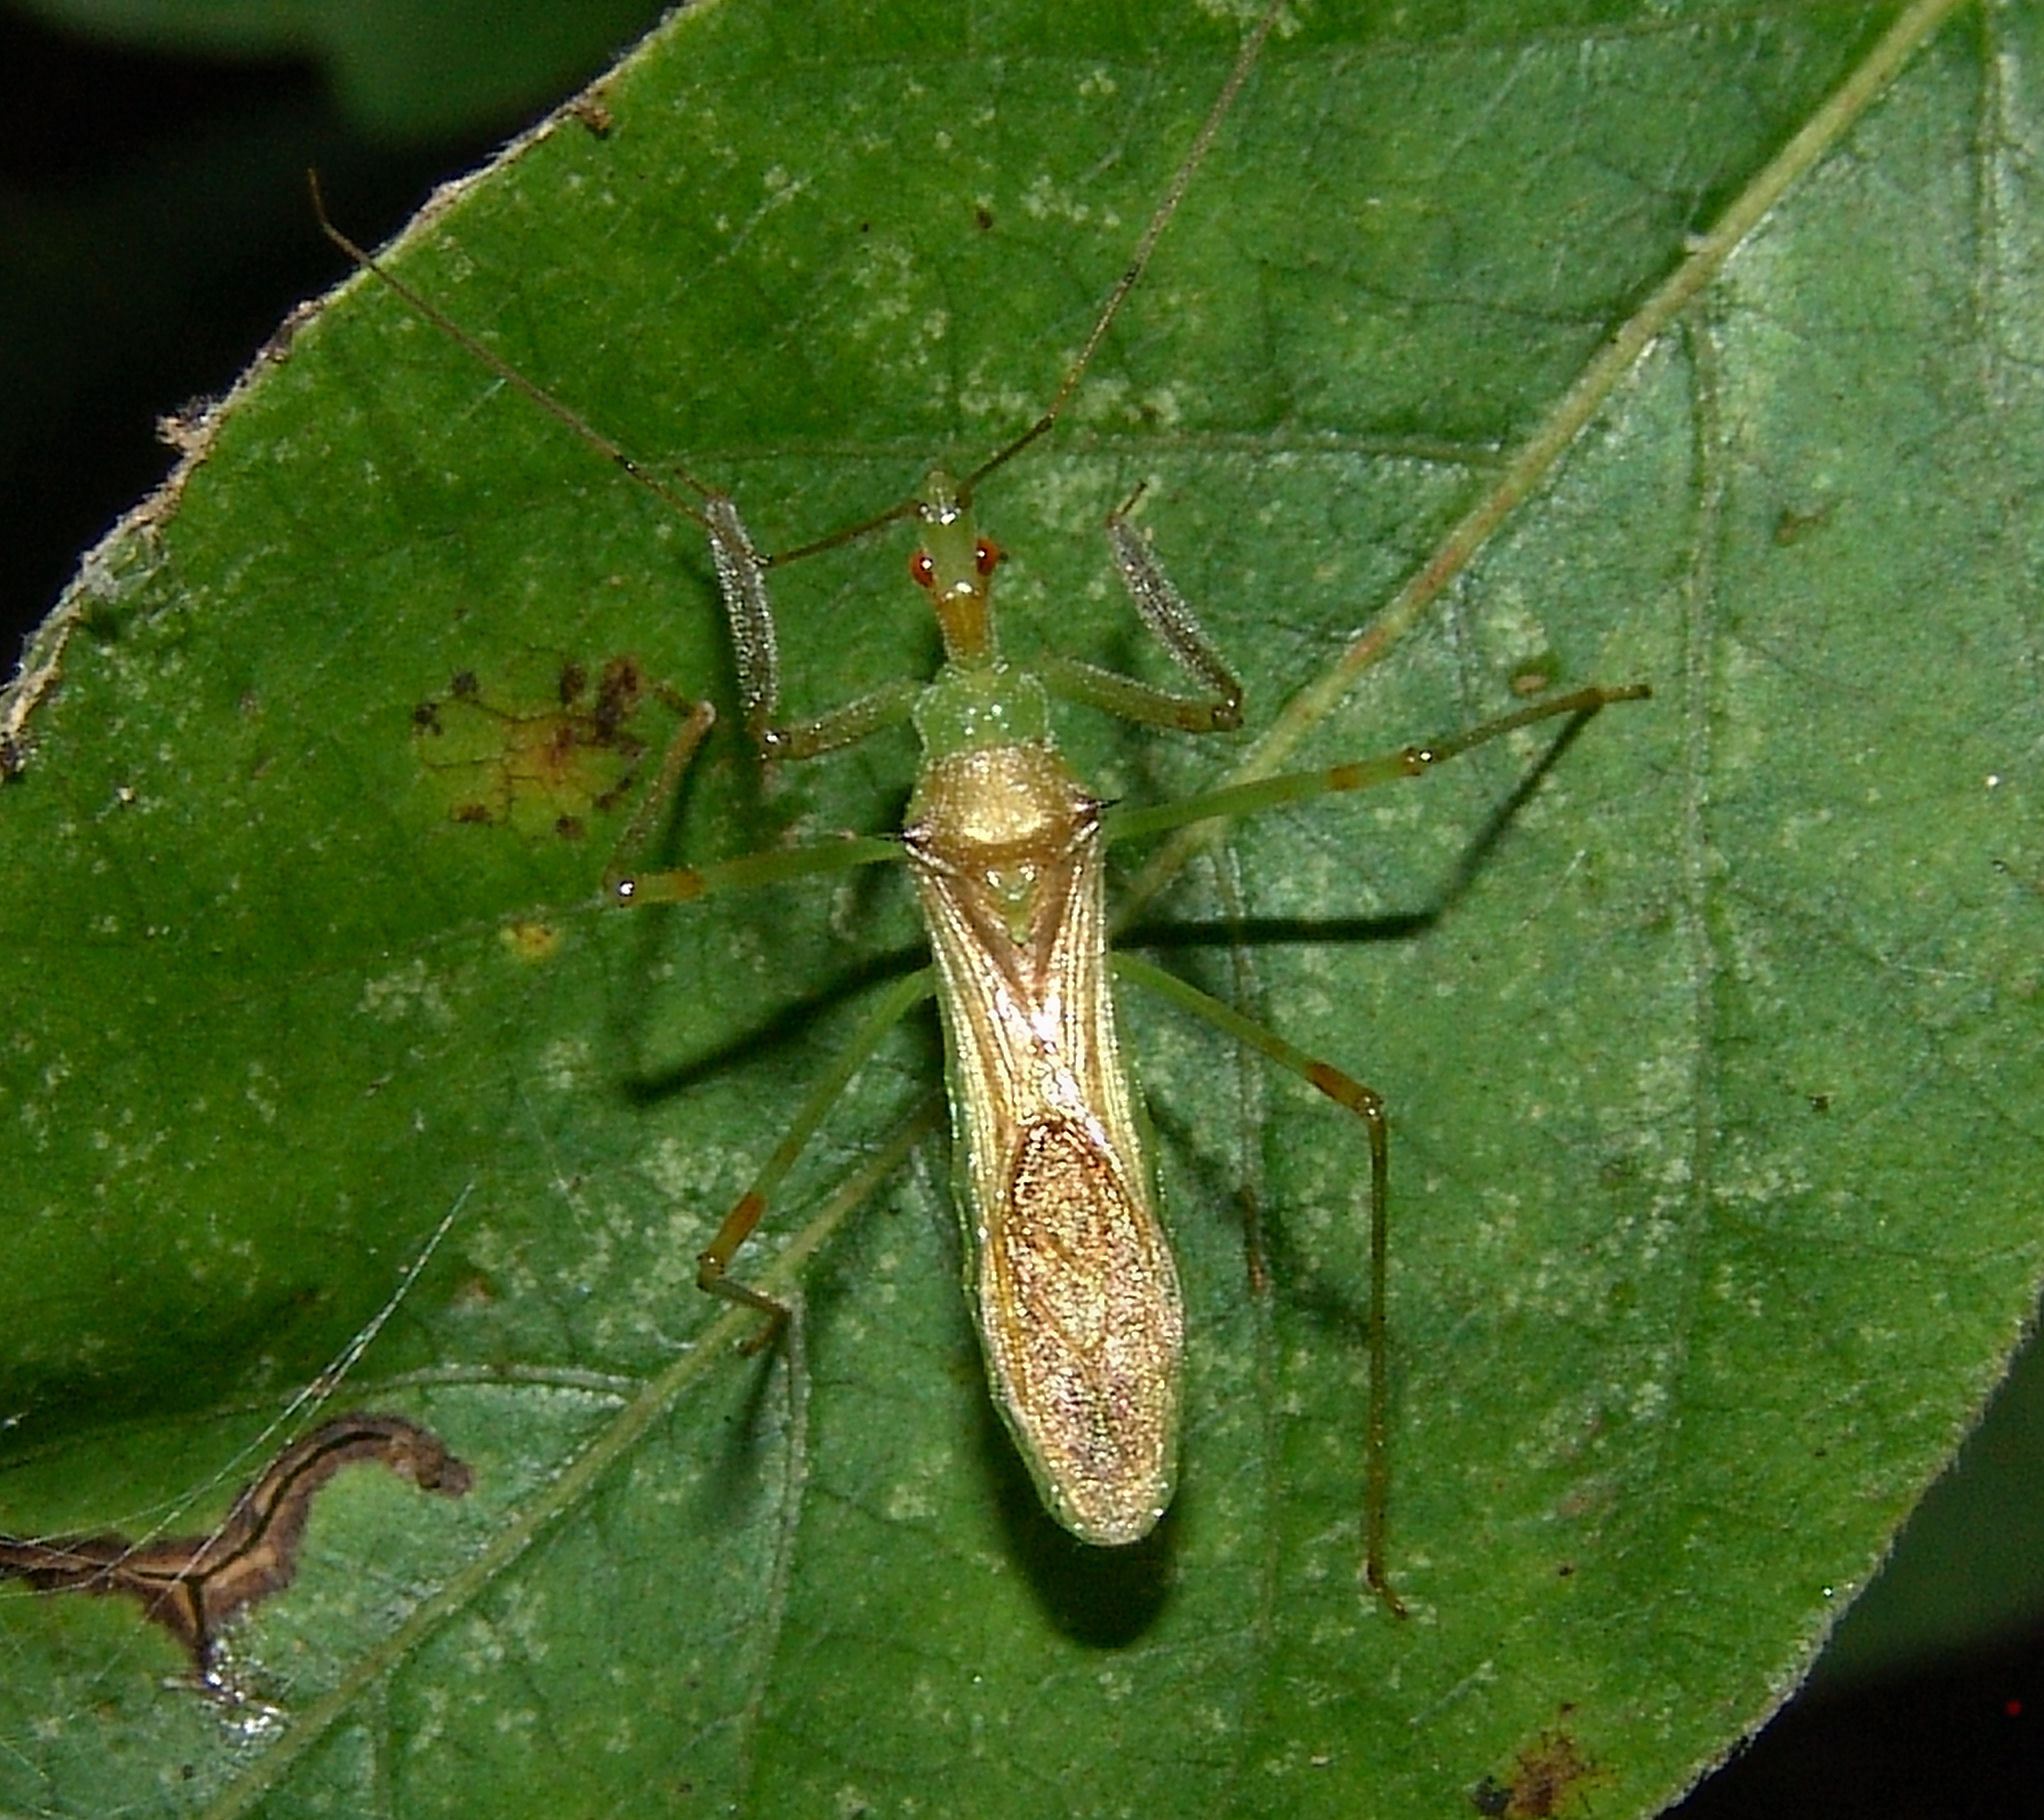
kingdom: Animalia
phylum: Arthropoda
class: Insecta
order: Hemiptera
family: Reduviidae
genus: Zelus
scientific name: Zelus luridus
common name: Pale green assassin bug
